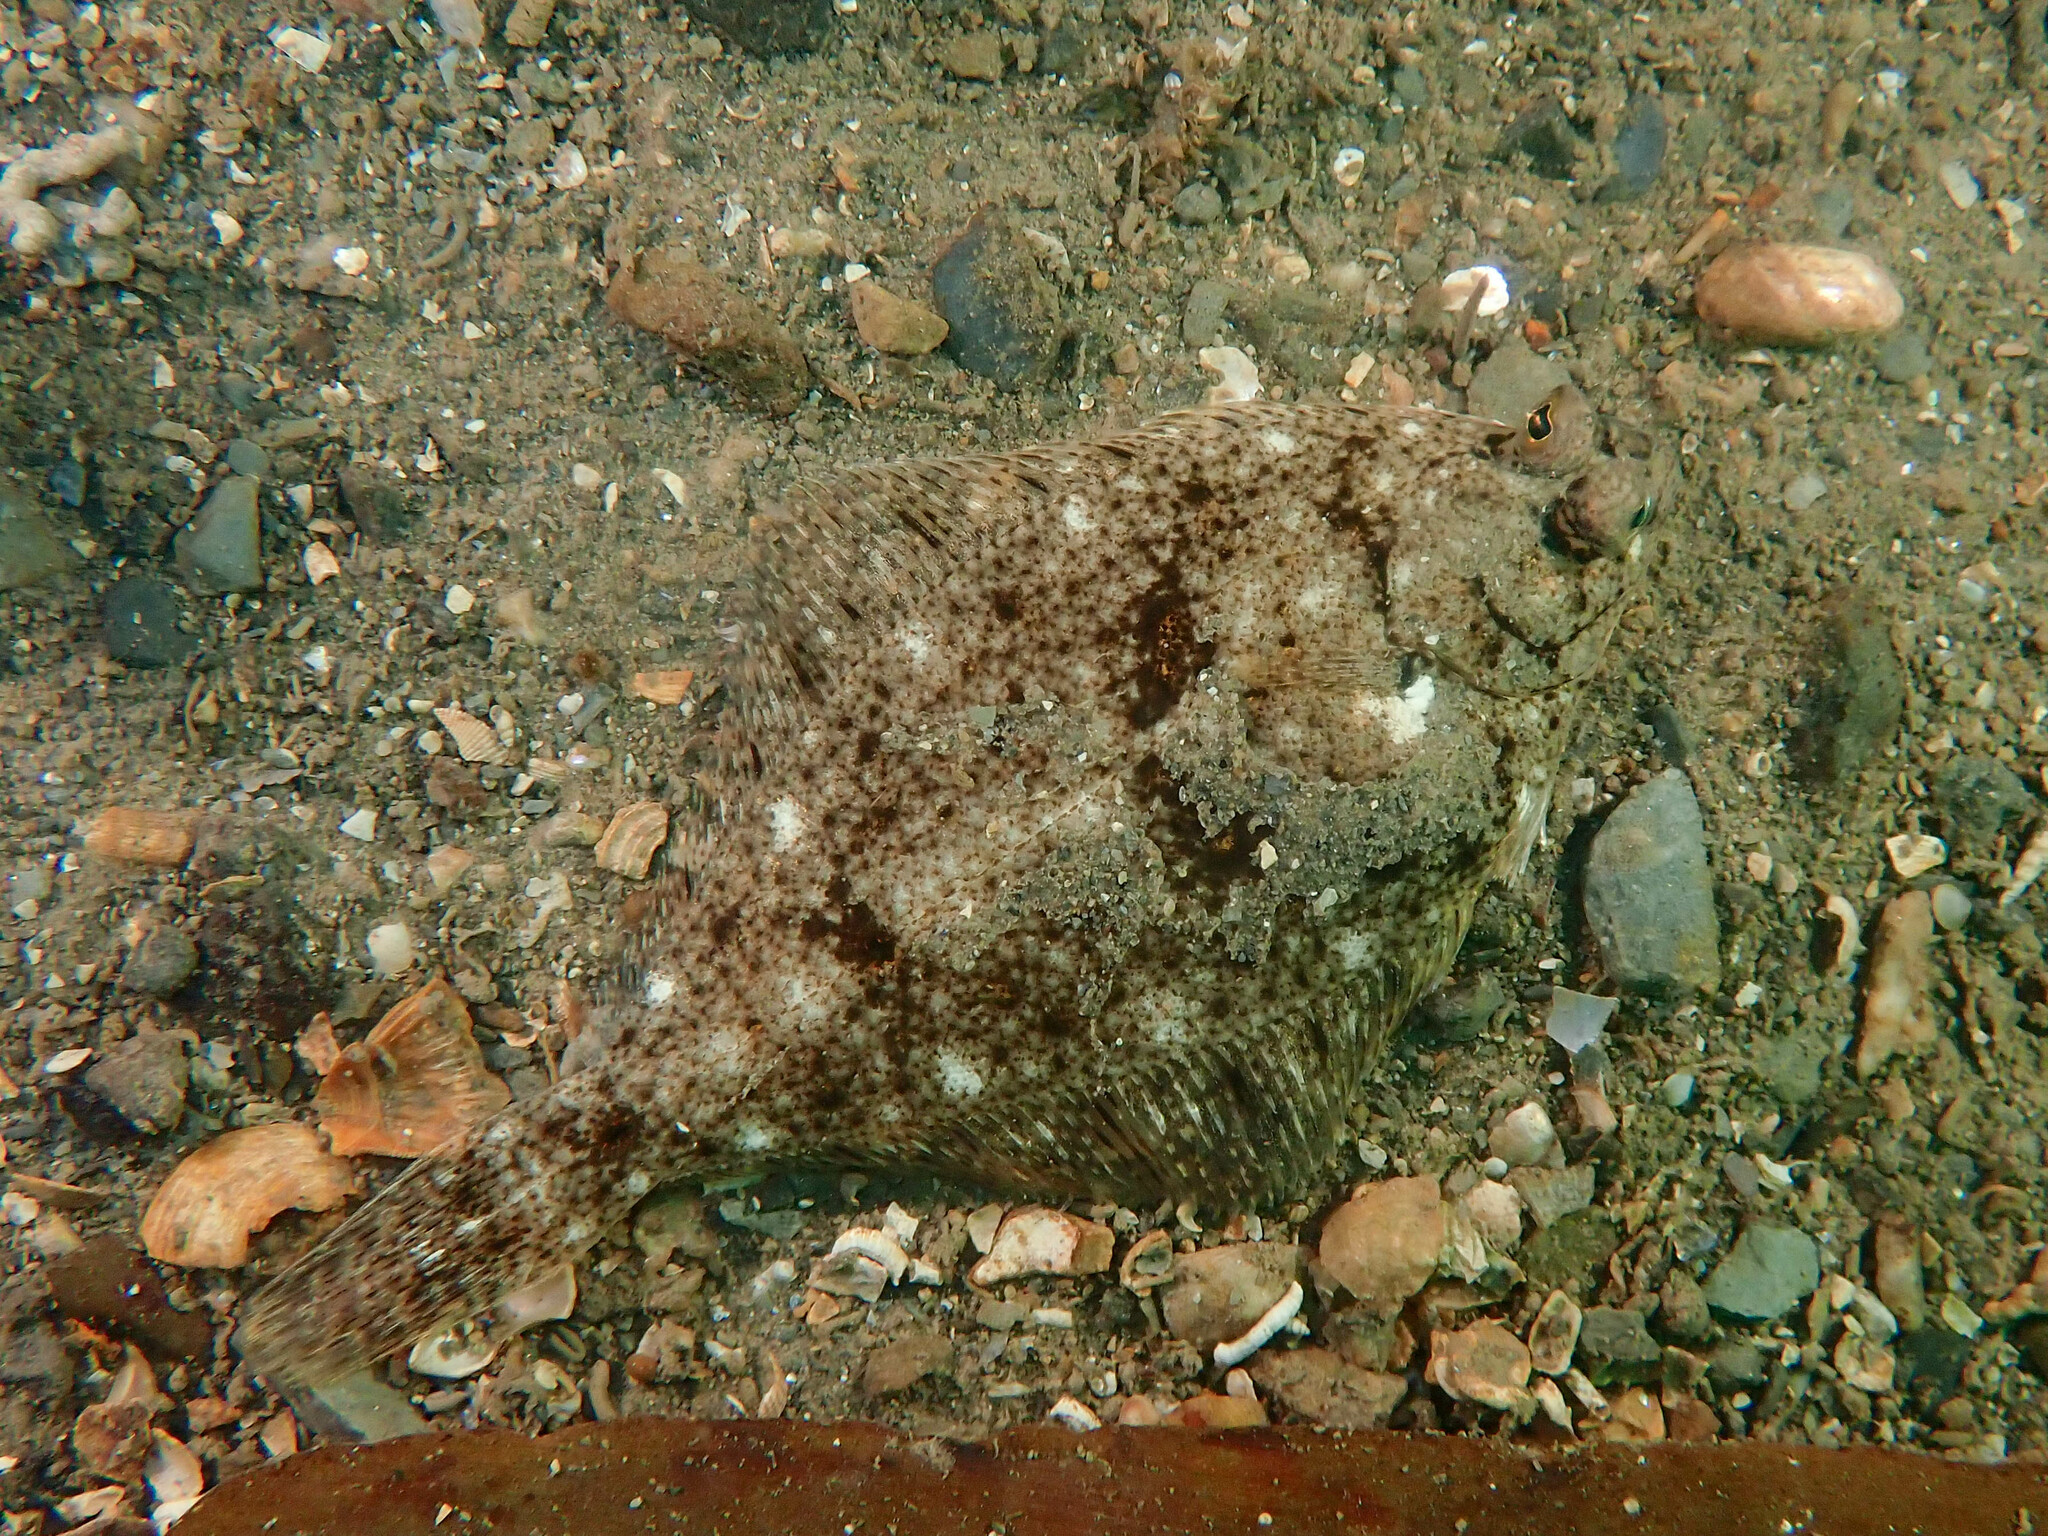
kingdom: Animalia
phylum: Chordata
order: Pleuronectiformes
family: Pleuronectidae
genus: Limanda
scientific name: Limanda limanda
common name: Dab
